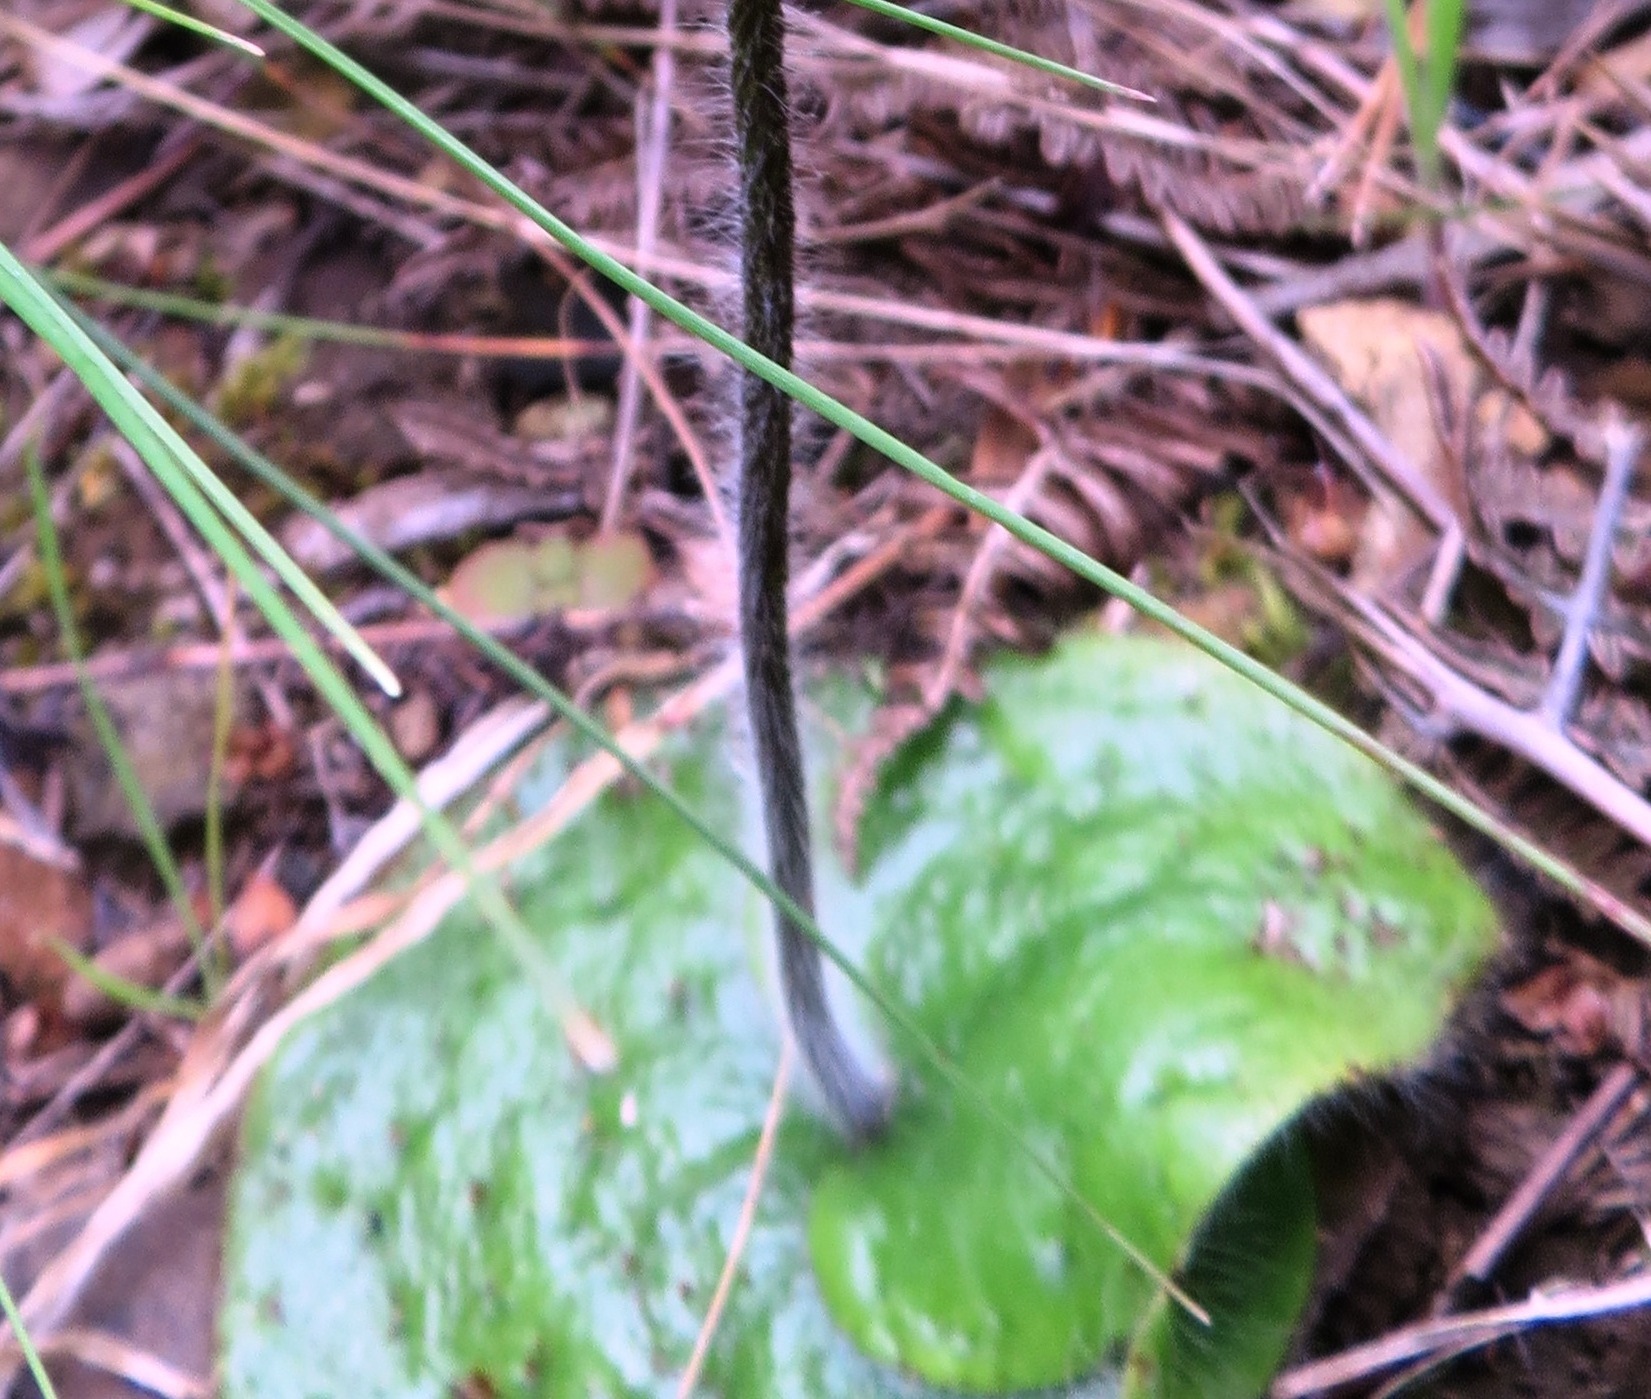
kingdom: Plantae
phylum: Tracheophyta
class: Liliopsida
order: Asparagales
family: Orchidaceae
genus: Holothrix
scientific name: Holothrix villosa
